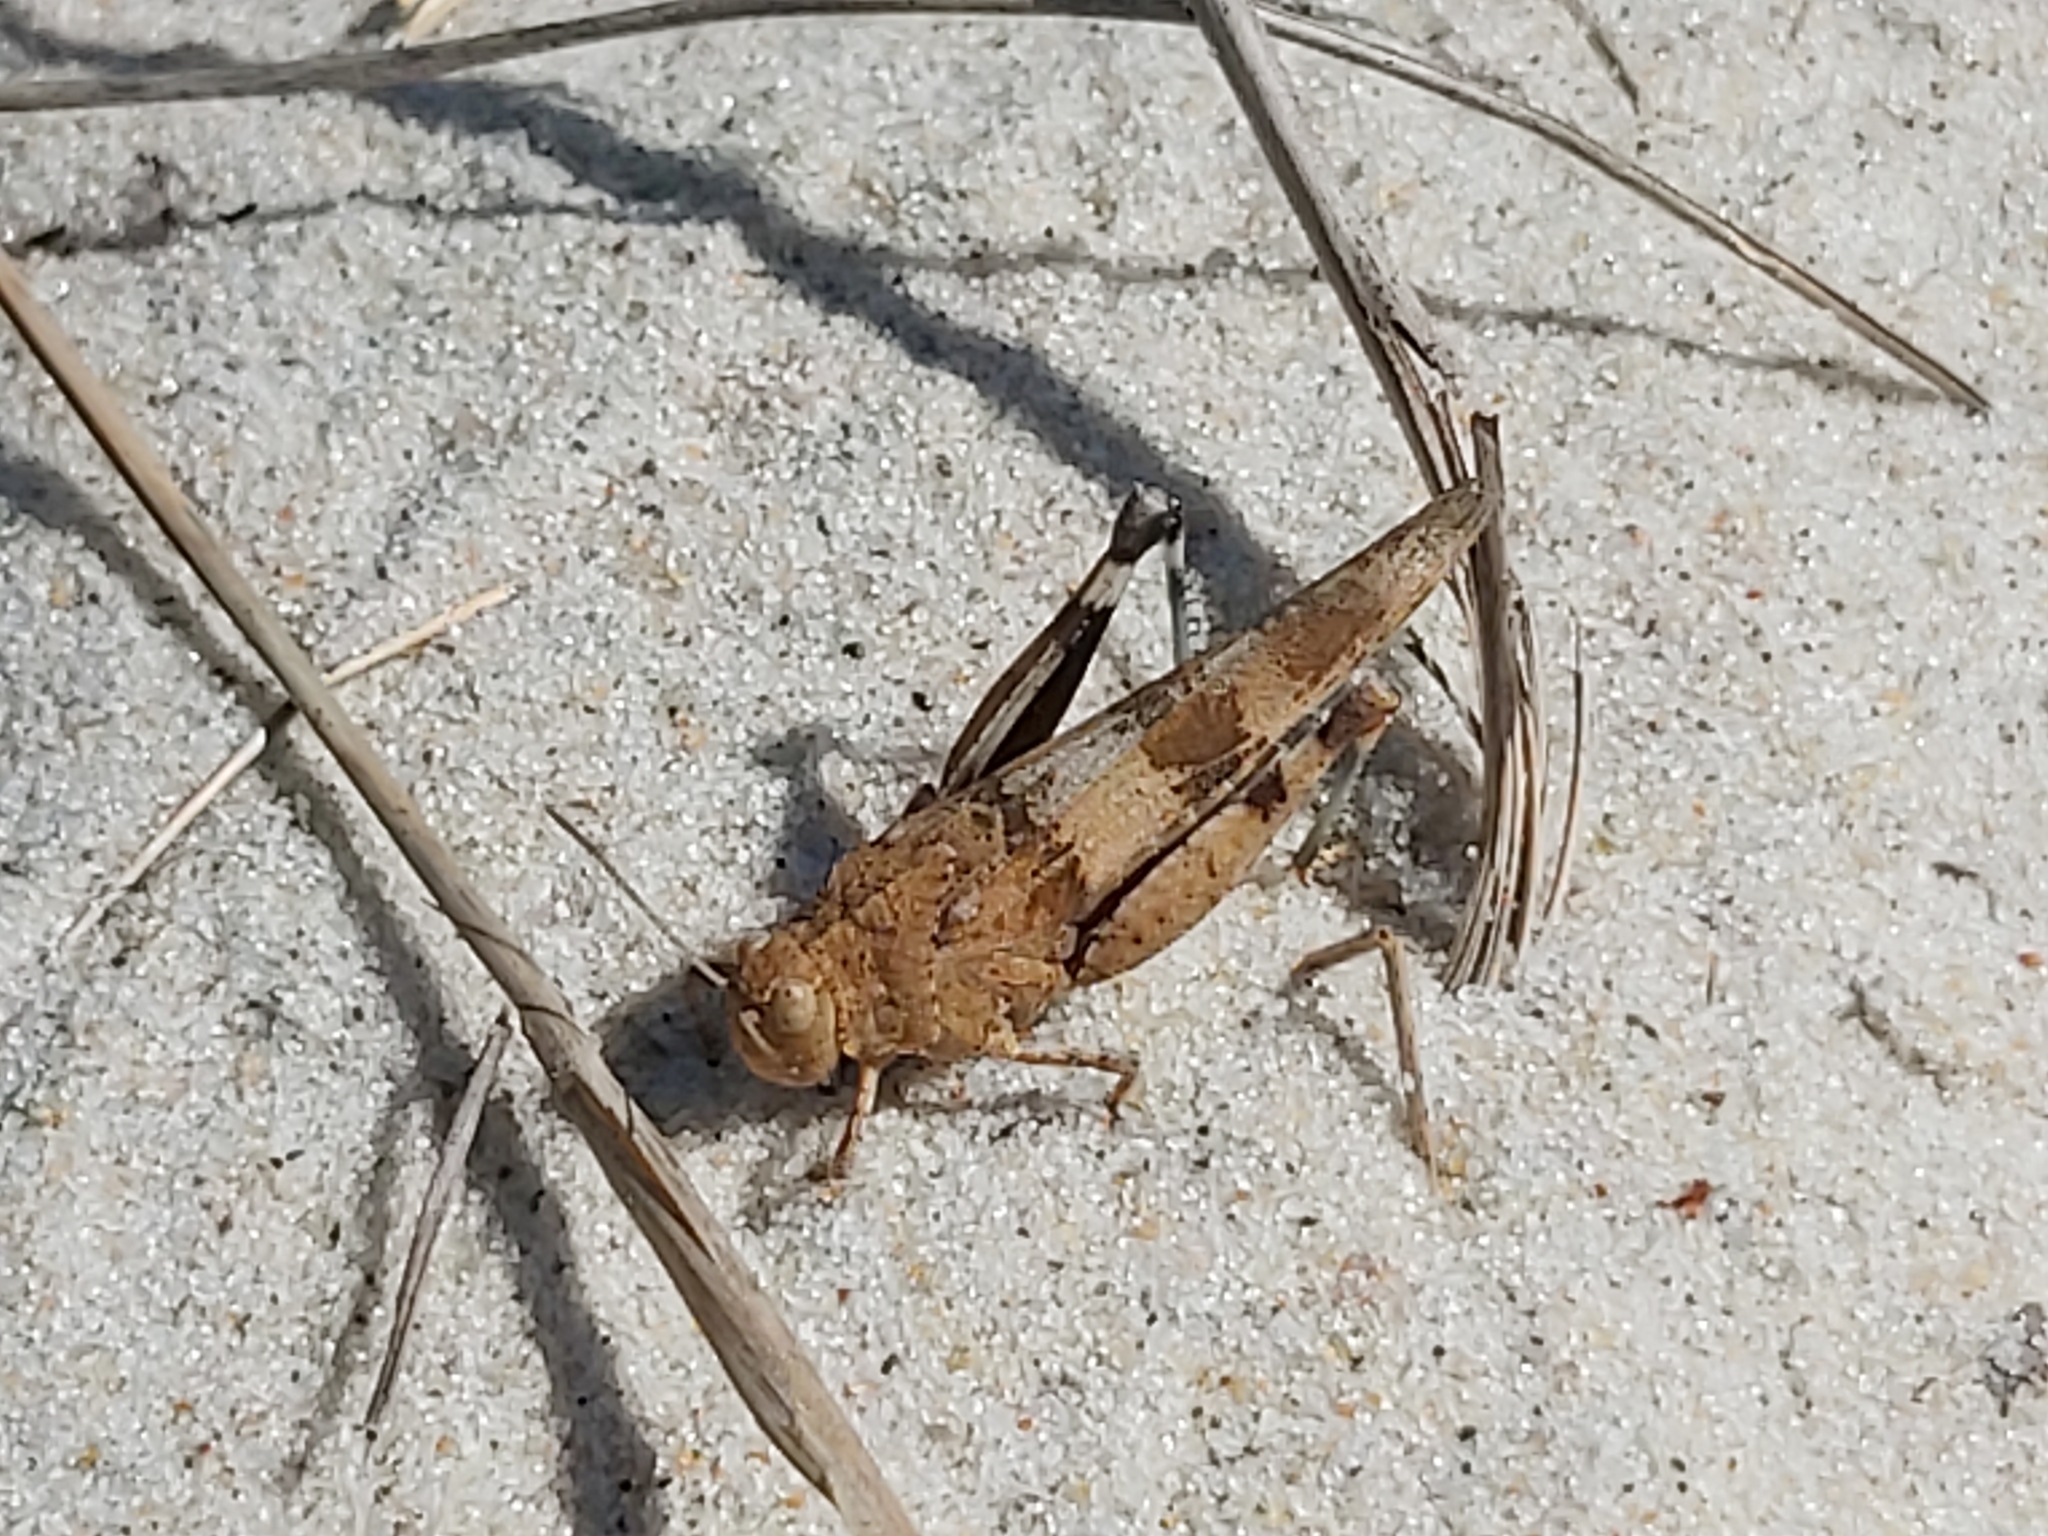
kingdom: Animalia
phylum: Arthropoda
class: Insecta
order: Orthoptera
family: Acrididae
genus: Oedipoda
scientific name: Oedipoda caerulescens
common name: Blue-winged grasshopper
